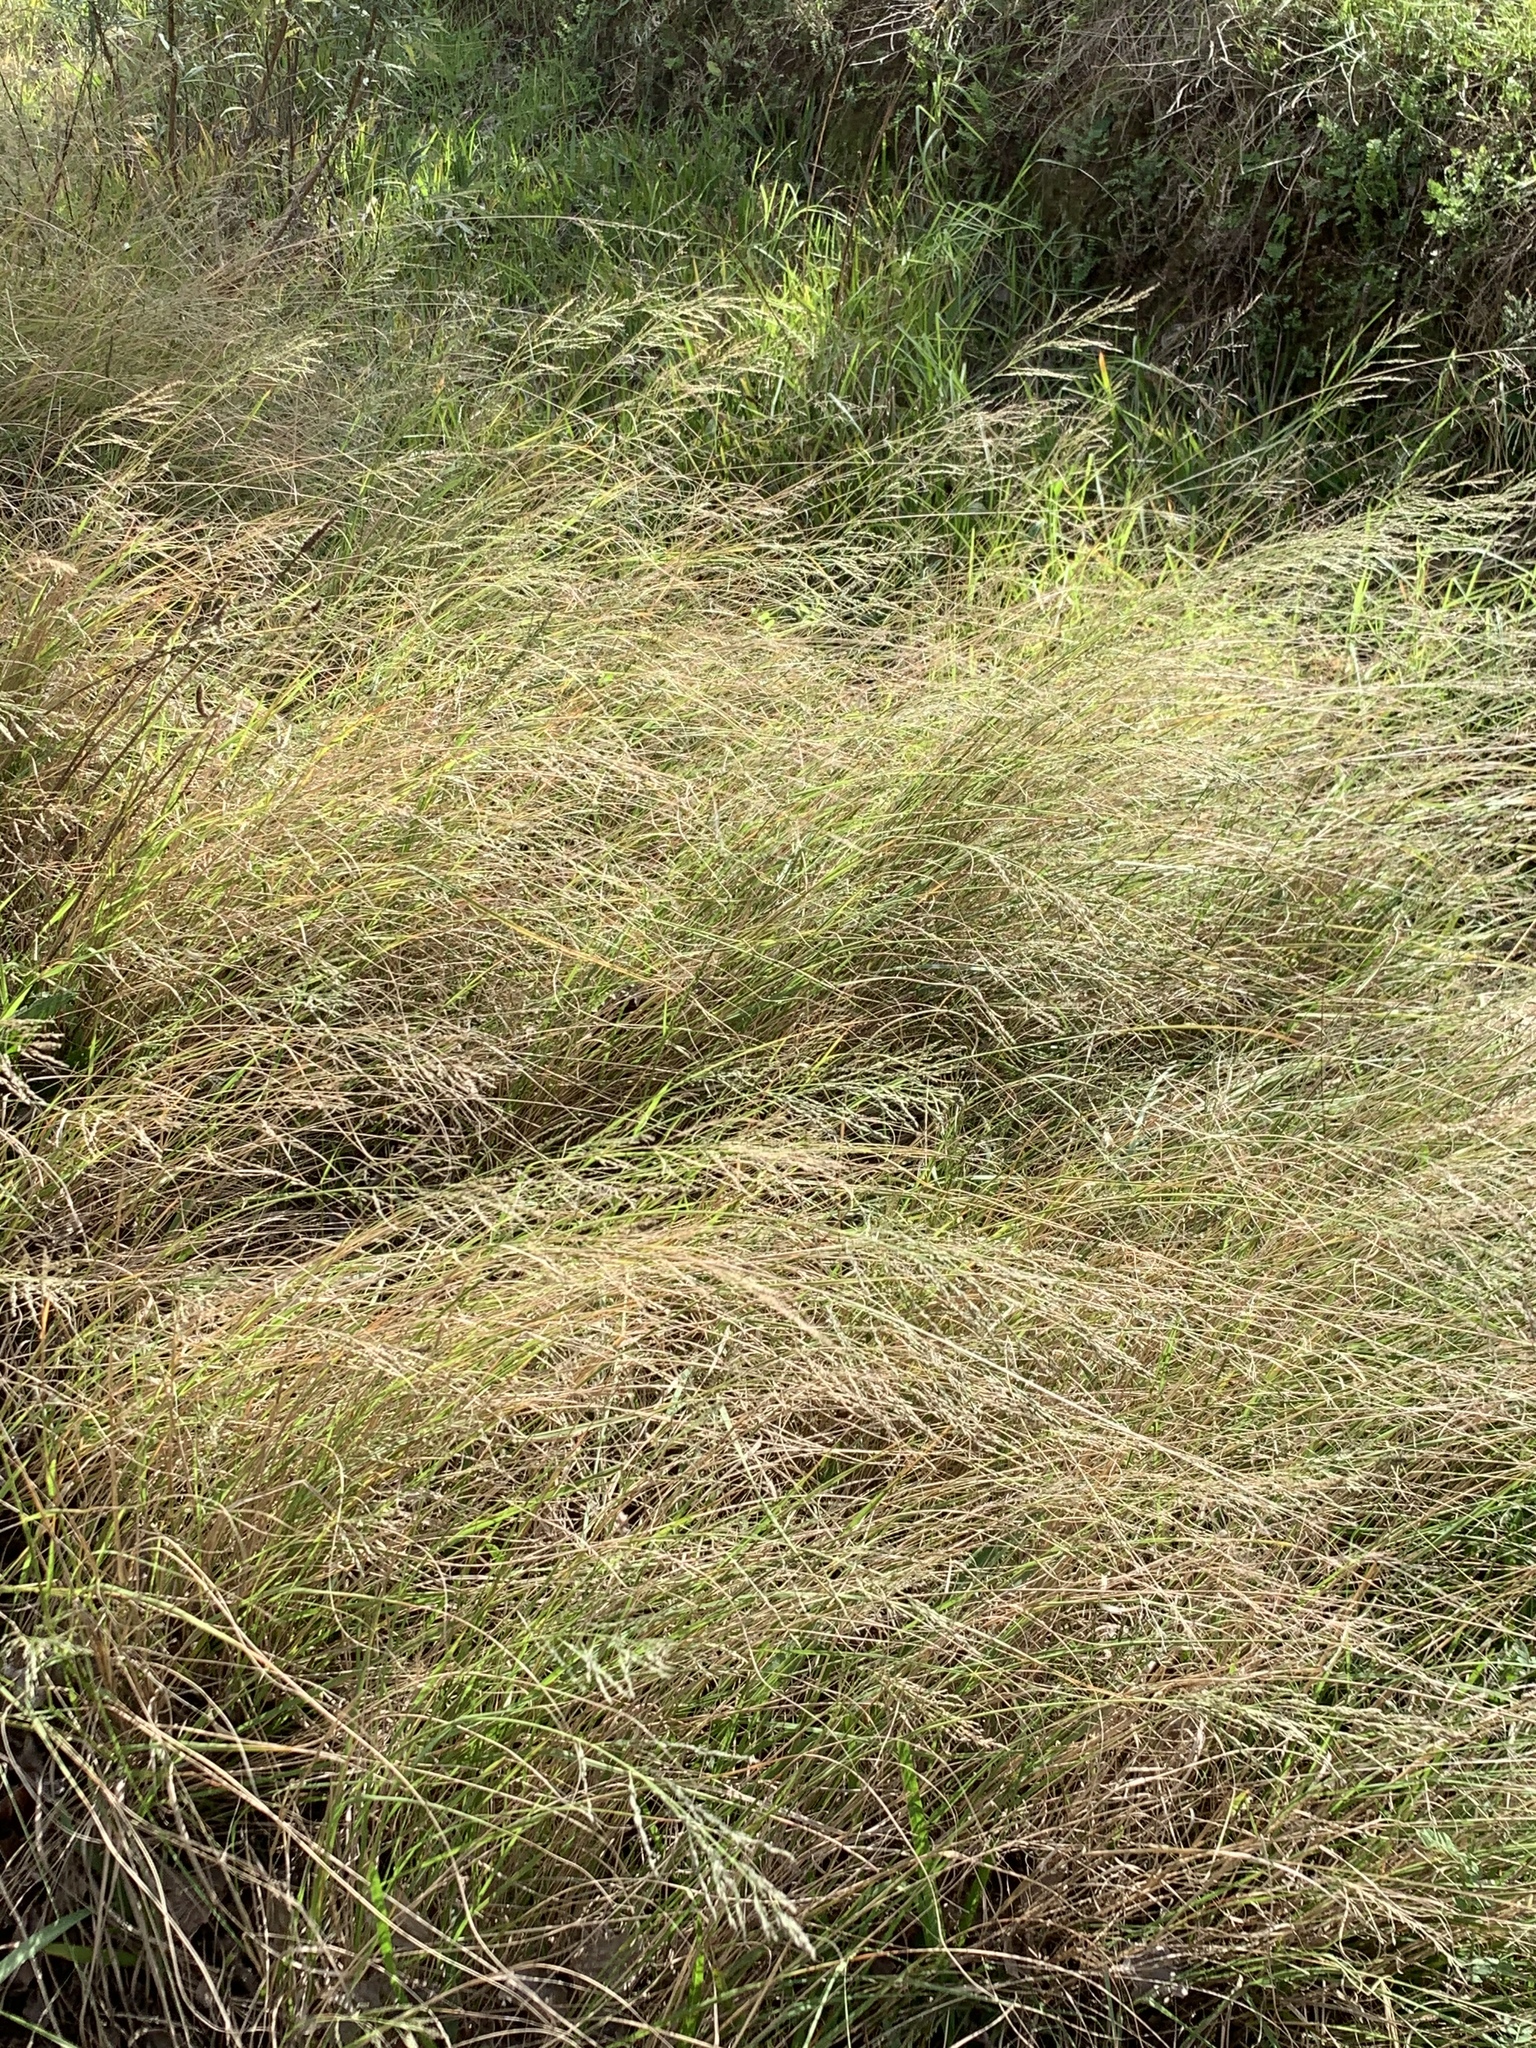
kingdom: Plantae
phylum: Tracheophyta
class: Liliopsida
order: Poales
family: Poaceae
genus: Eragrostis
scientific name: Eragrostis curvula
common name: African love-grass
